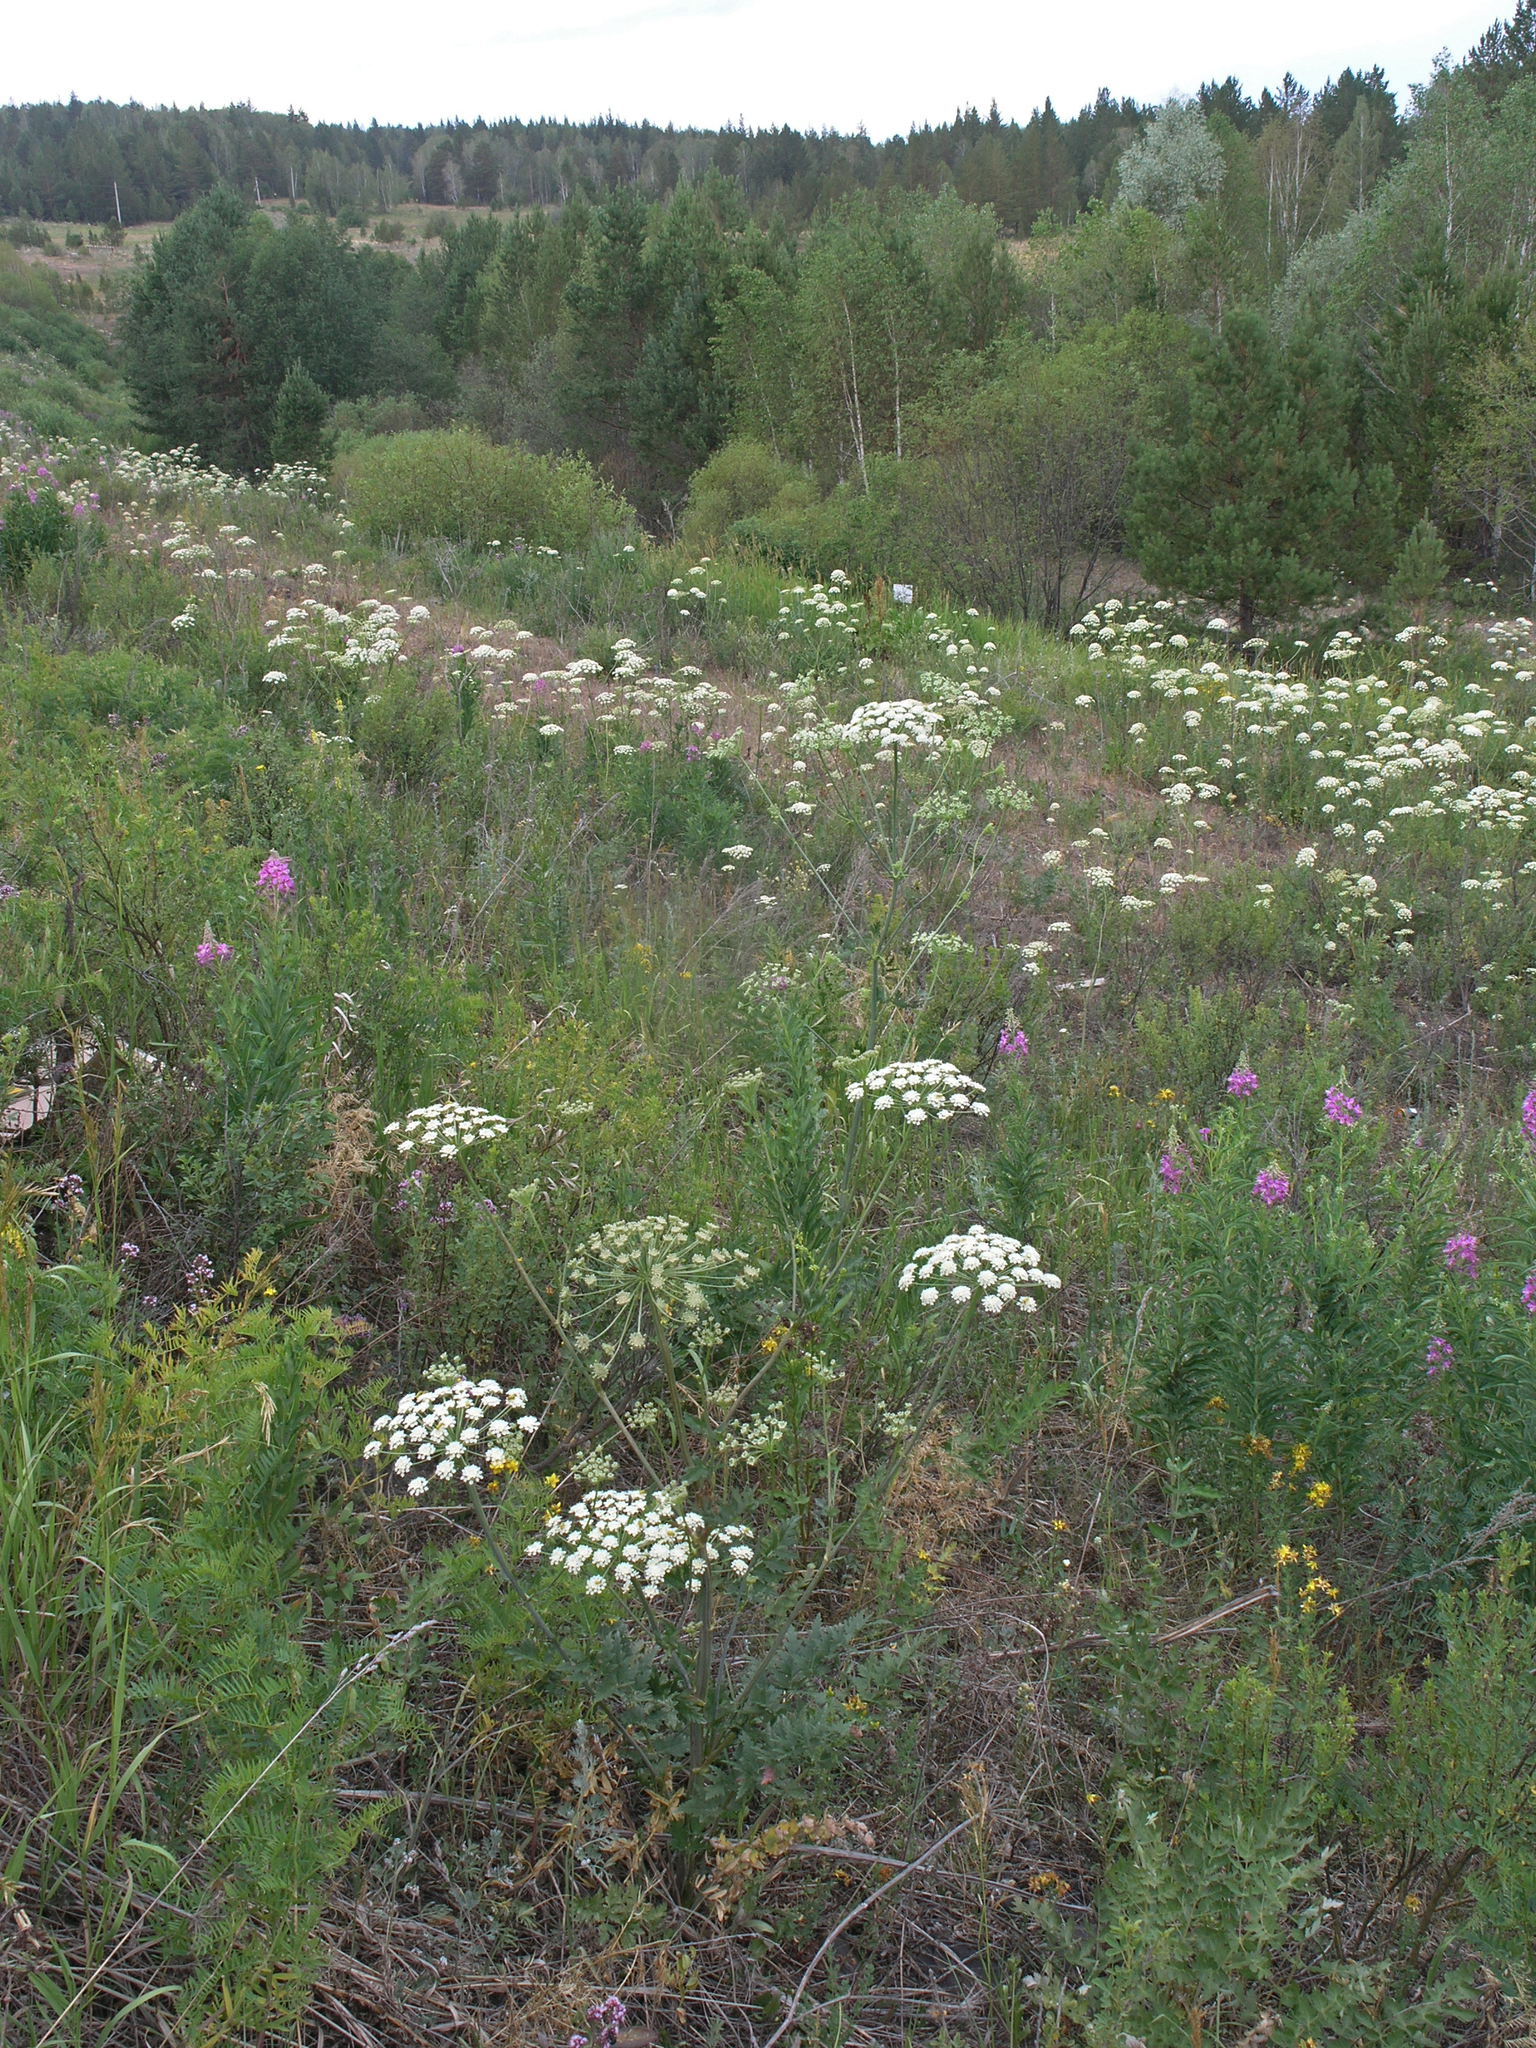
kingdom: Plantae
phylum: Tracheophyta
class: Magnoliopsida
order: Apiales
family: Apiaceae
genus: Seseli
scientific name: Seseli libanotis
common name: Mooncarrot
